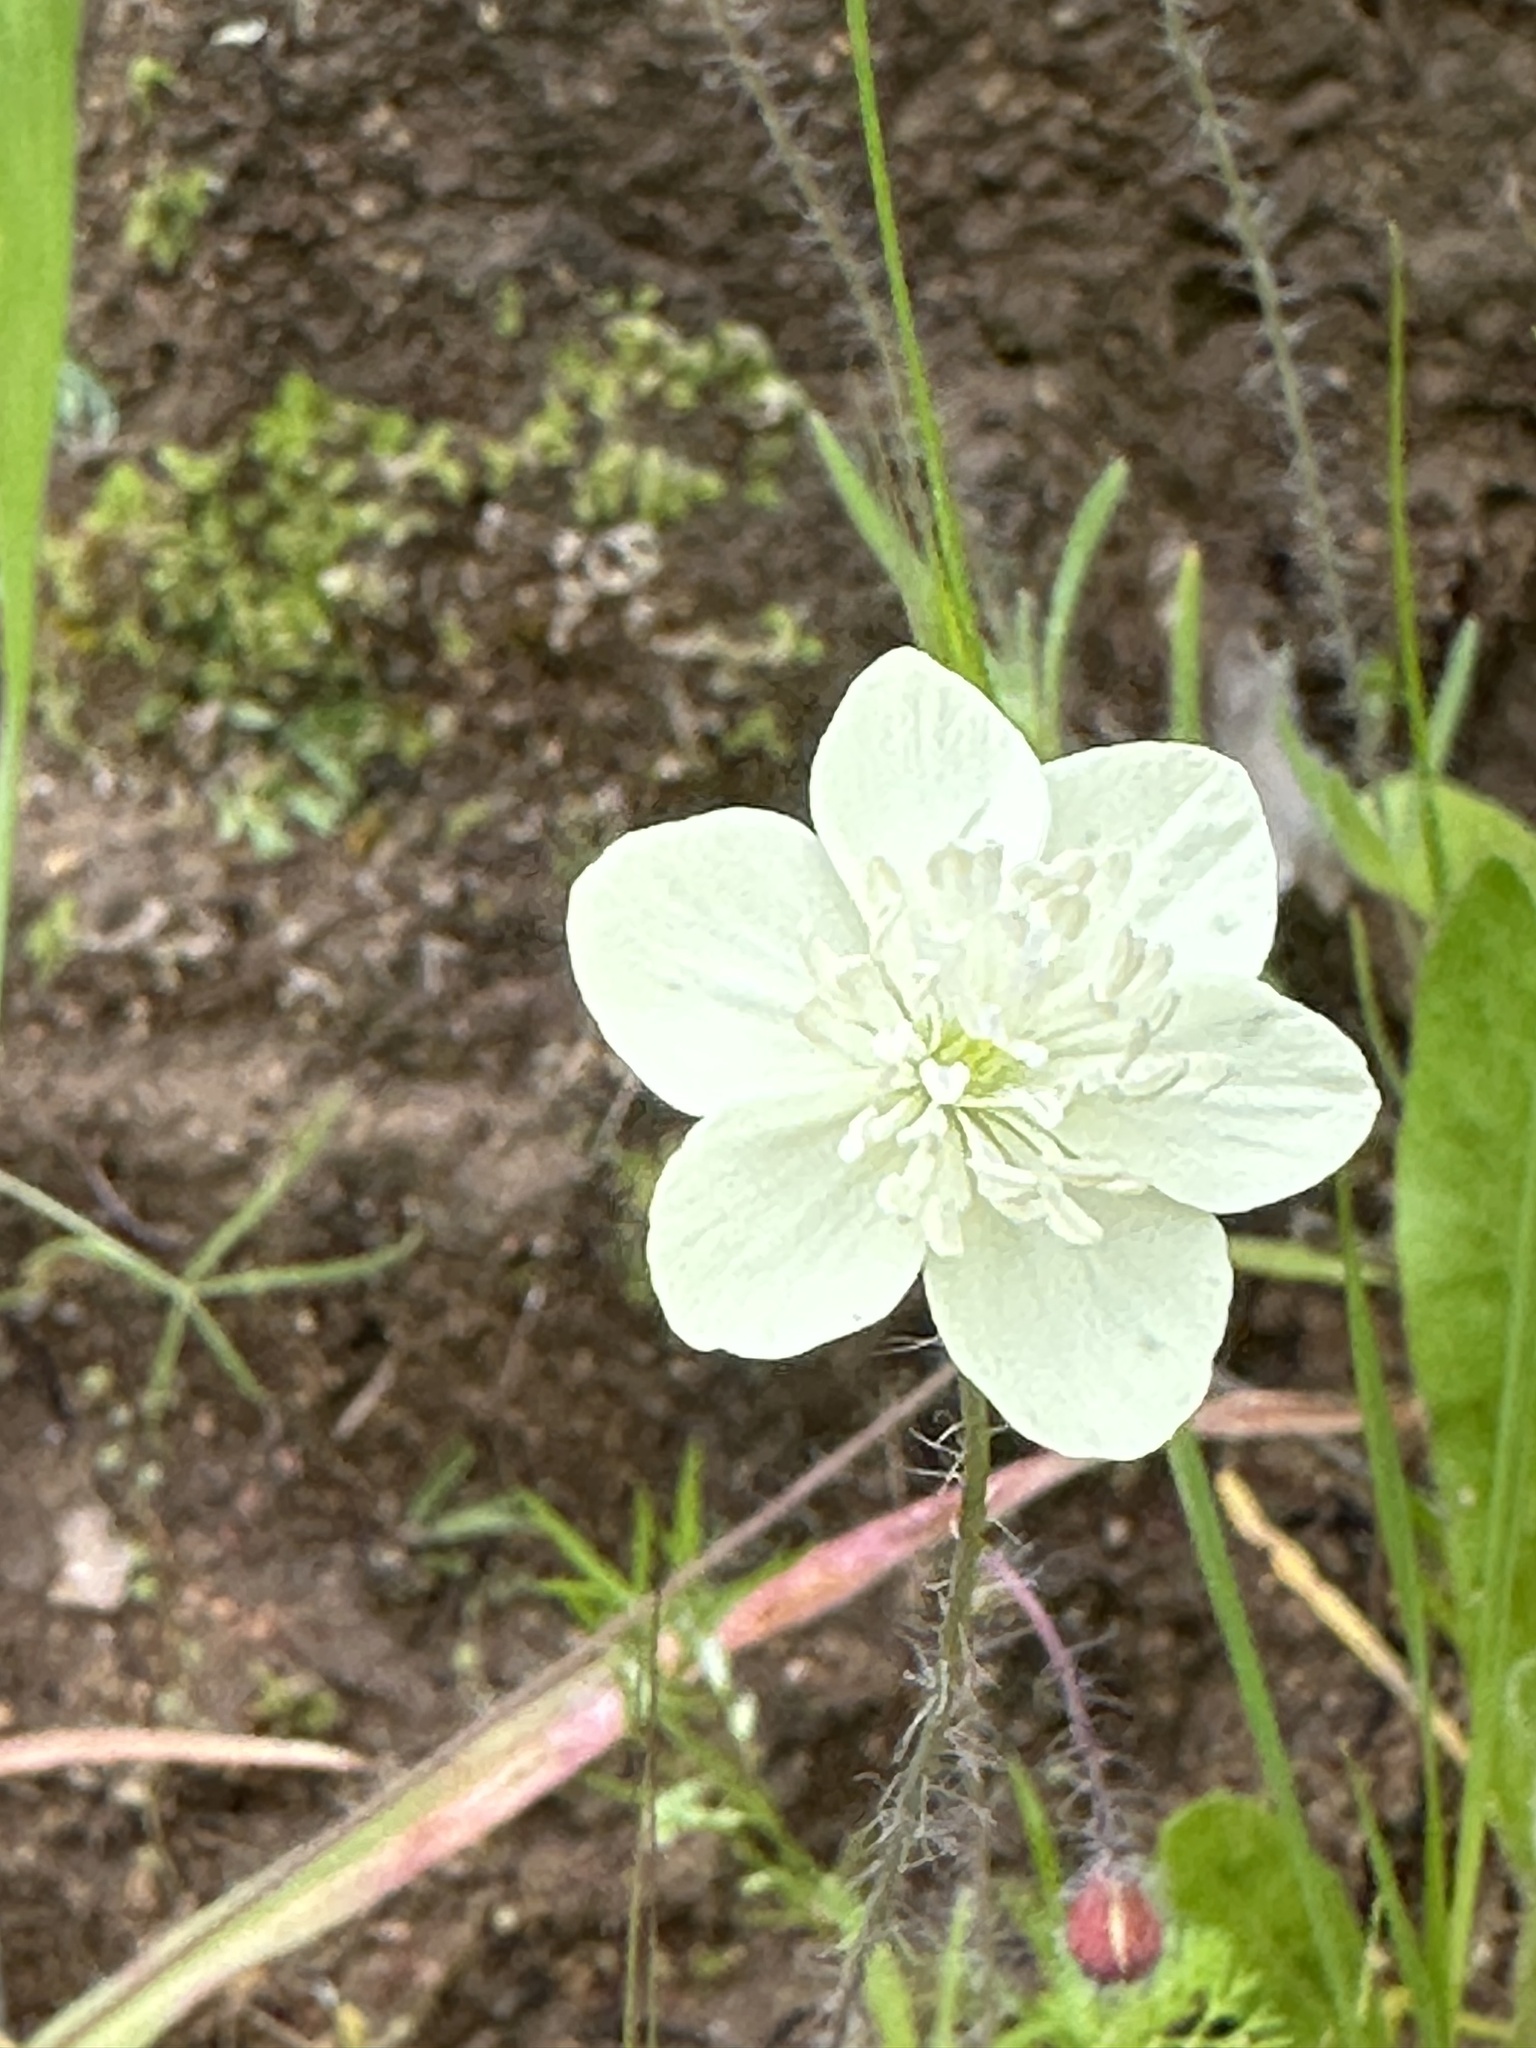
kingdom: Plantae
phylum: Tracheophyta
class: Magnoliopsida
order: Ranunculales
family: Papaveraceae
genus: Platystemon
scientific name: Platystemon californicus
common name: Cream-cups
